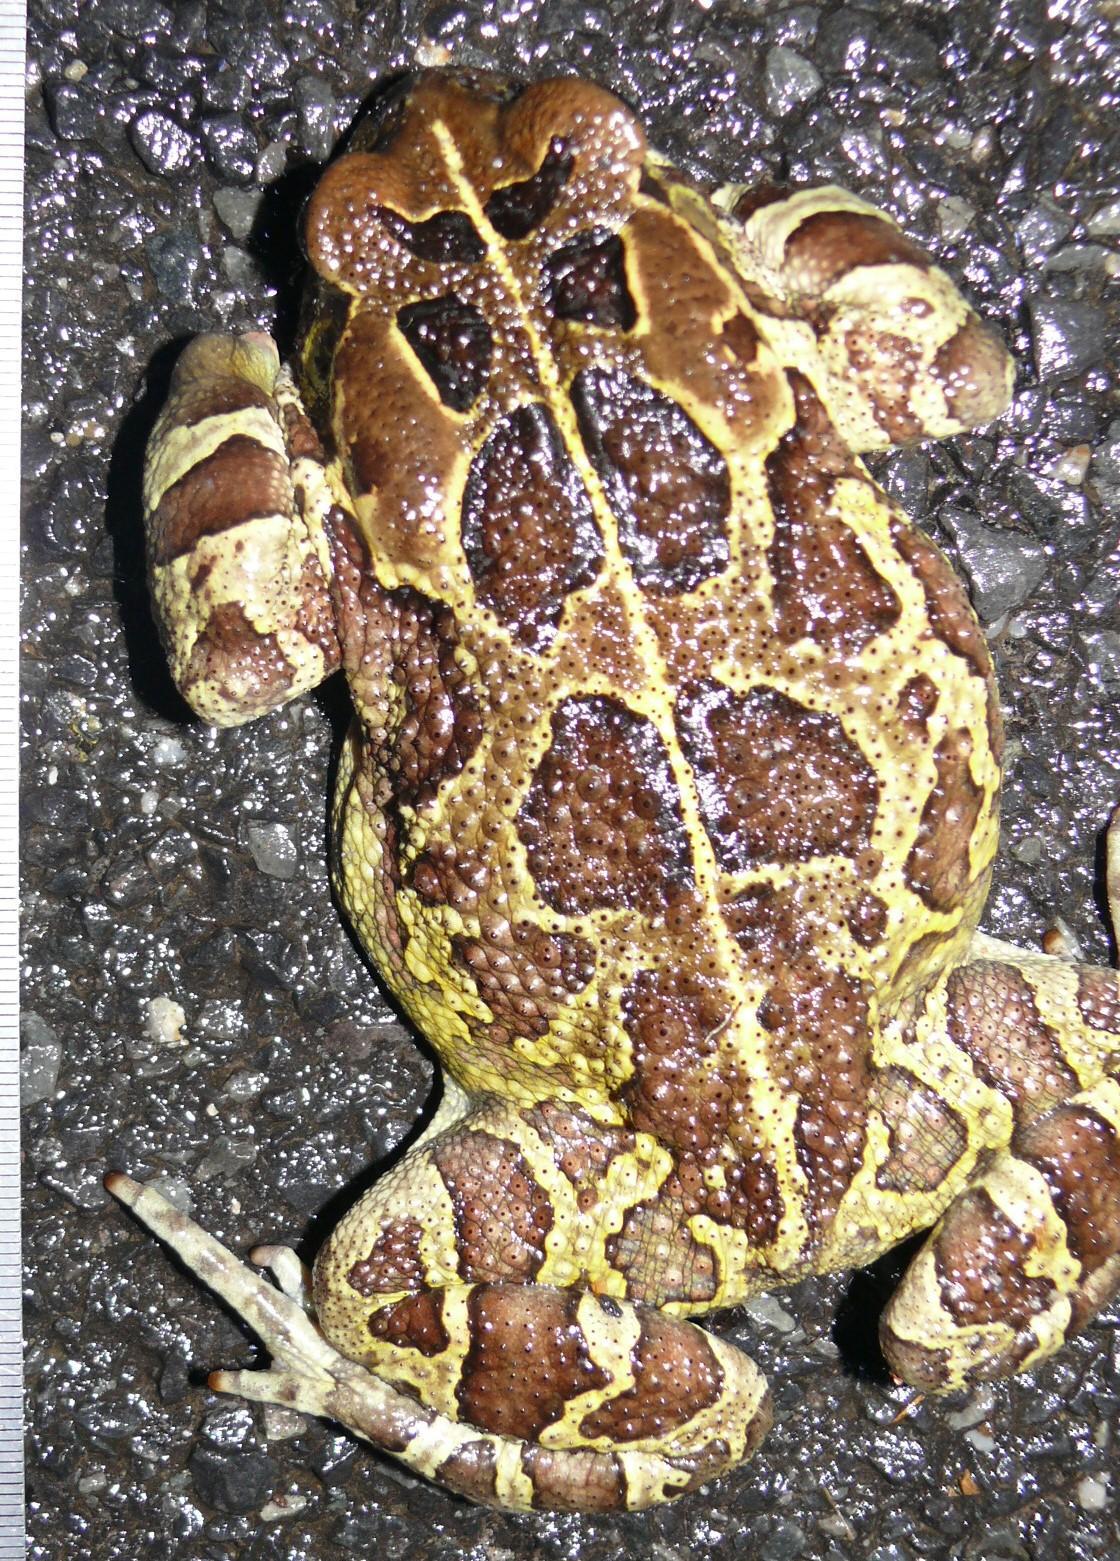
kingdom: Animalia
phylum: Chordata
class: Amphibia
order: Anura
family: Bufonidae
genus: Sclerophrys
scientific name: Sclerophrys pantherina
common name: Panther toad
